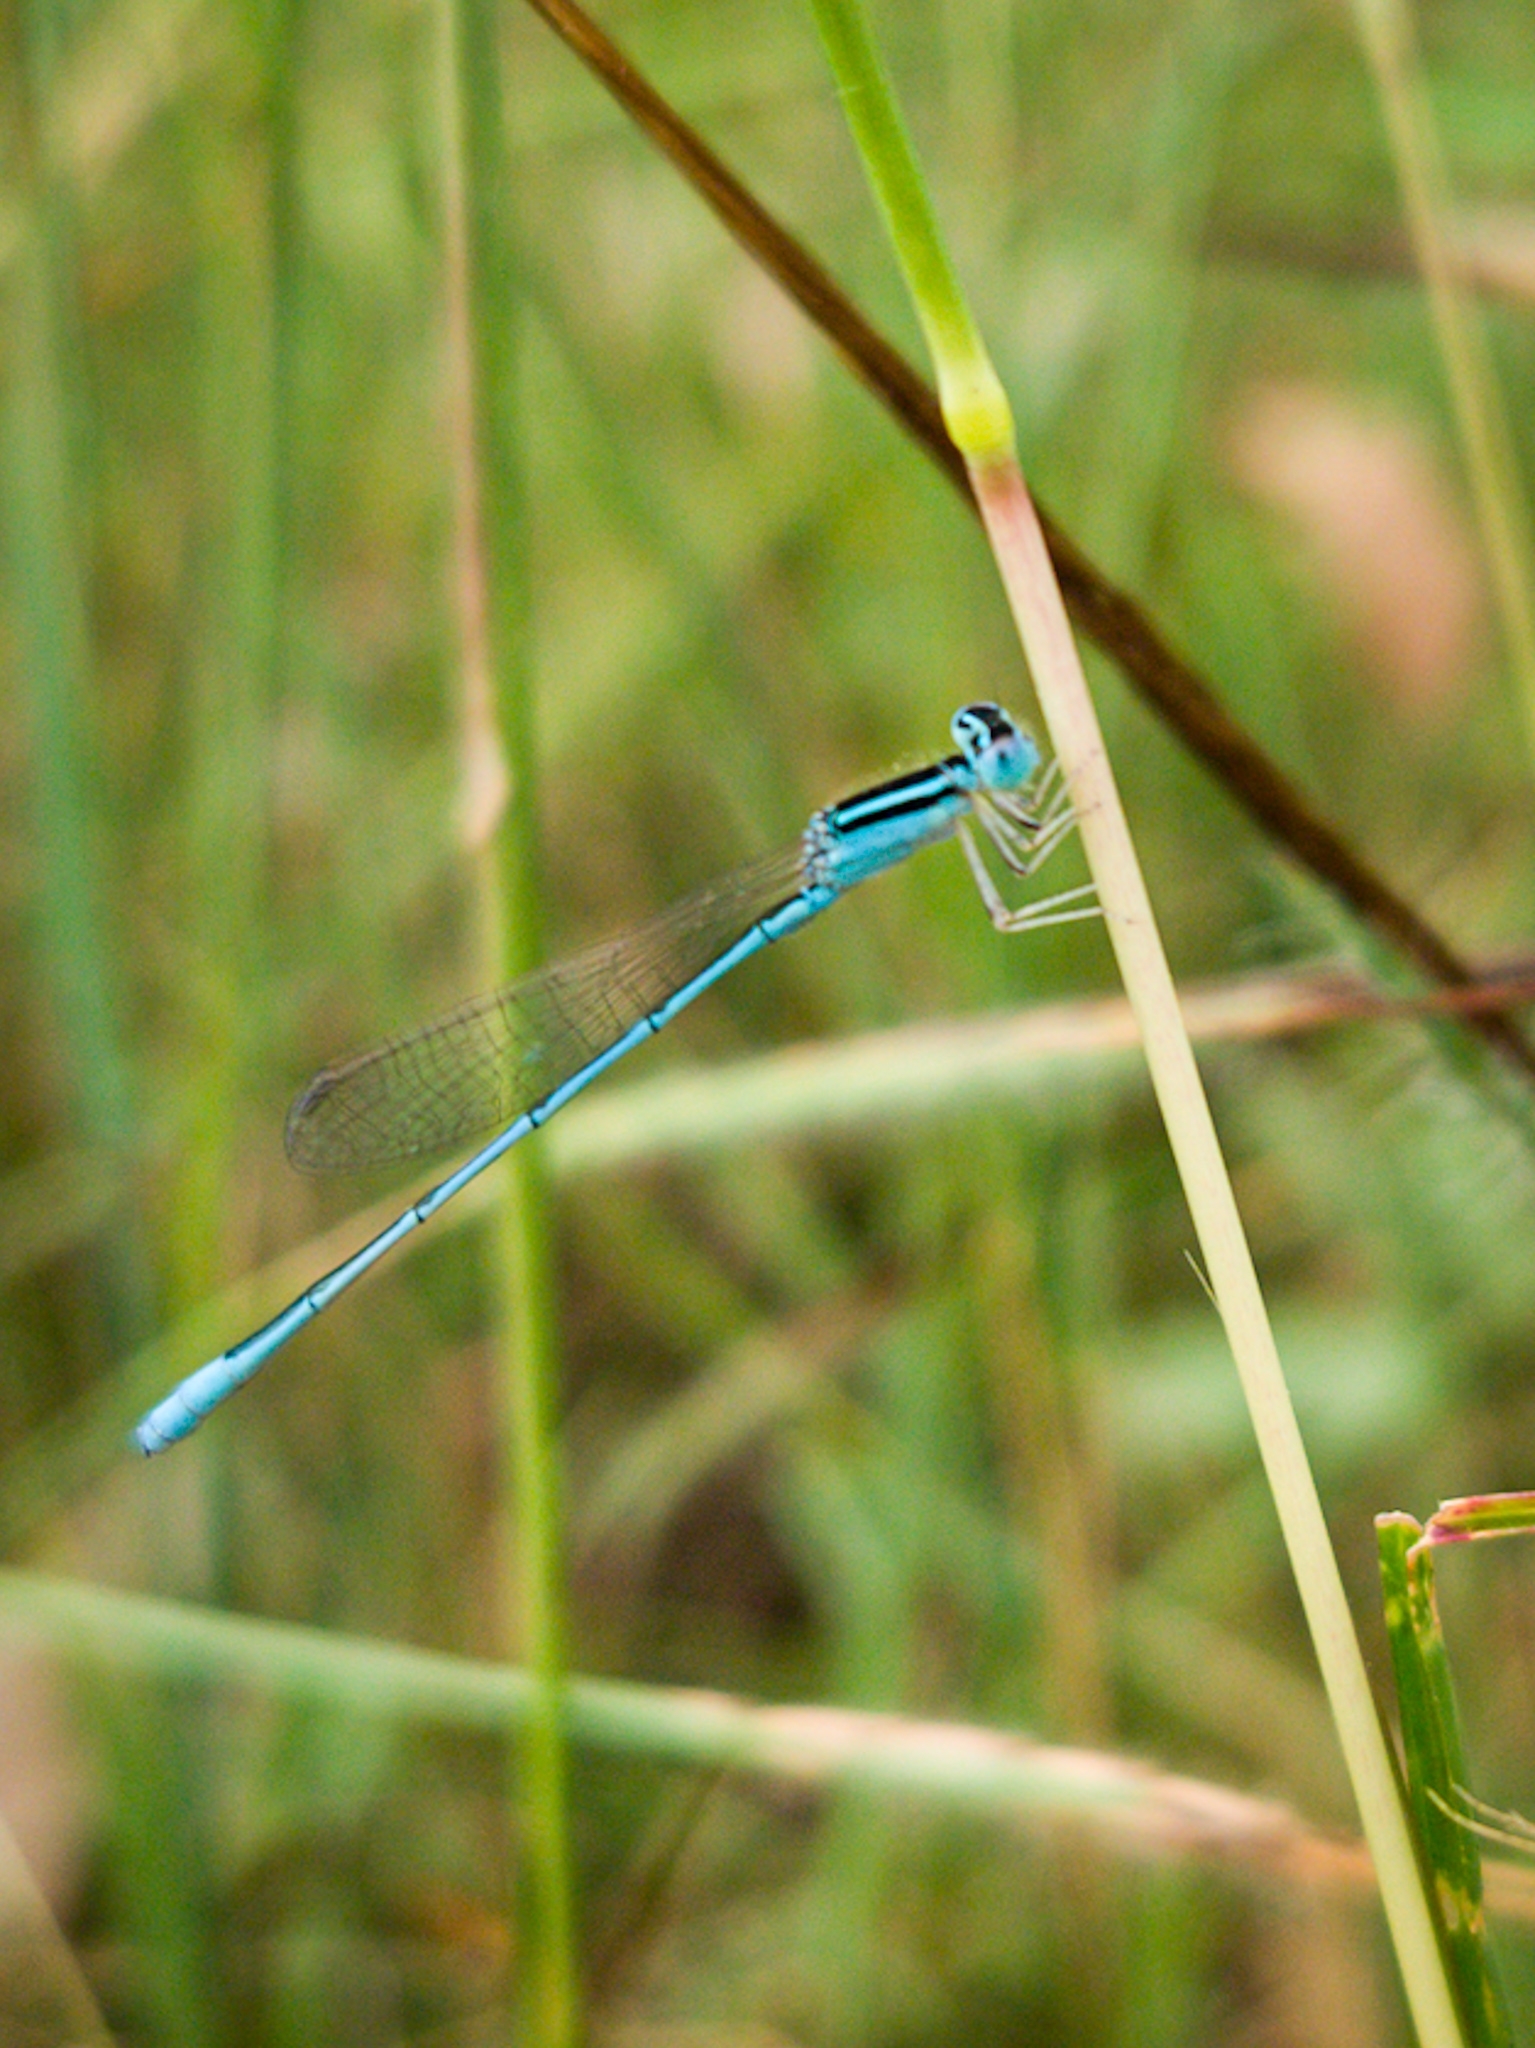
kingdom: Animalia
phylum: Arthropoda
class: Insecta
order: Odonata
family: Coenagrionidae
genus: Amphiallagma
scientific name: Amphiallagma parvum
